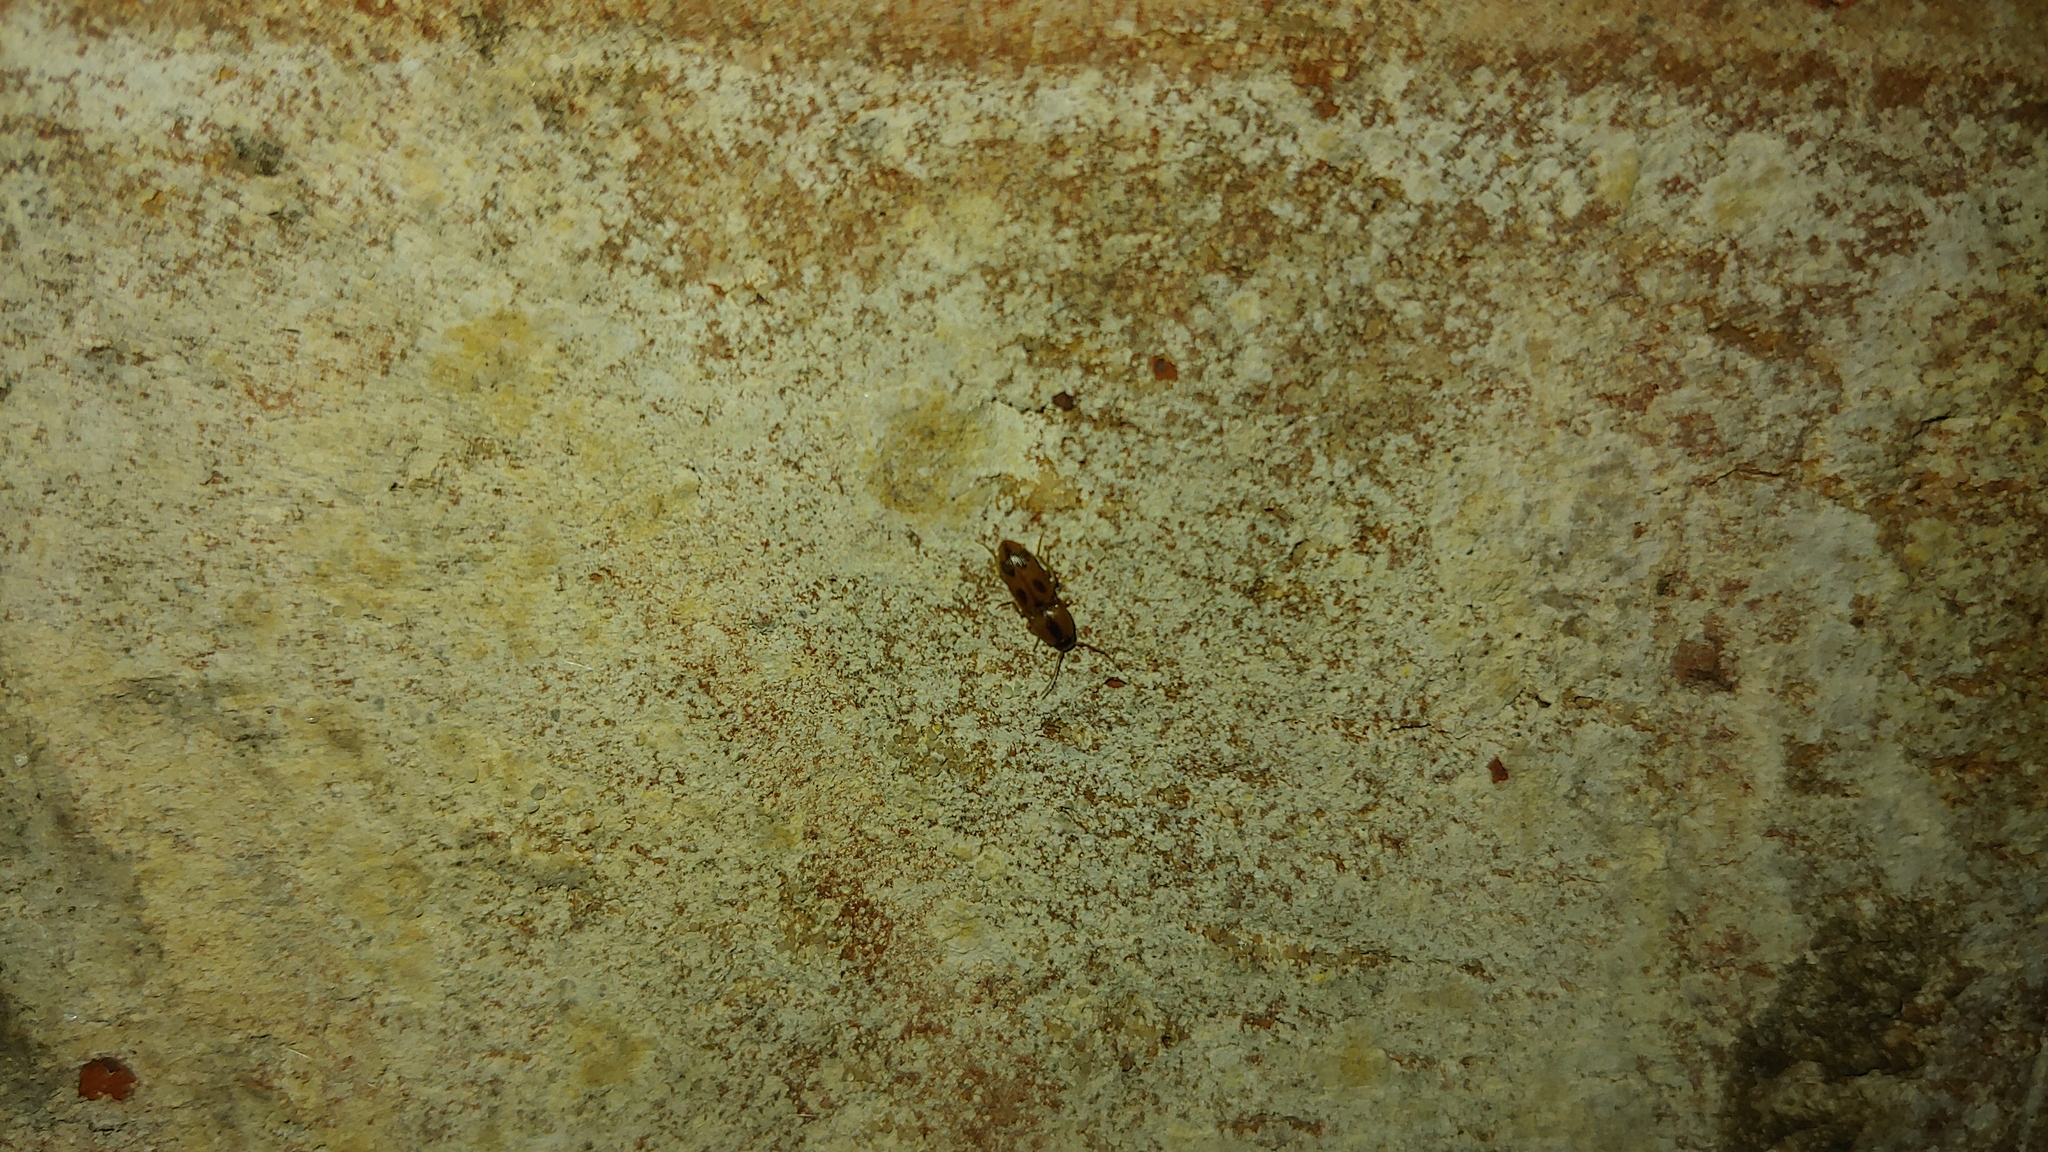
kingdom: Animalia
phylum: Arthropoda
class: Insecta
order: Coleoptera
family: Elateridae
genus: Aeolus
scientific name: Aeolus mellillus
